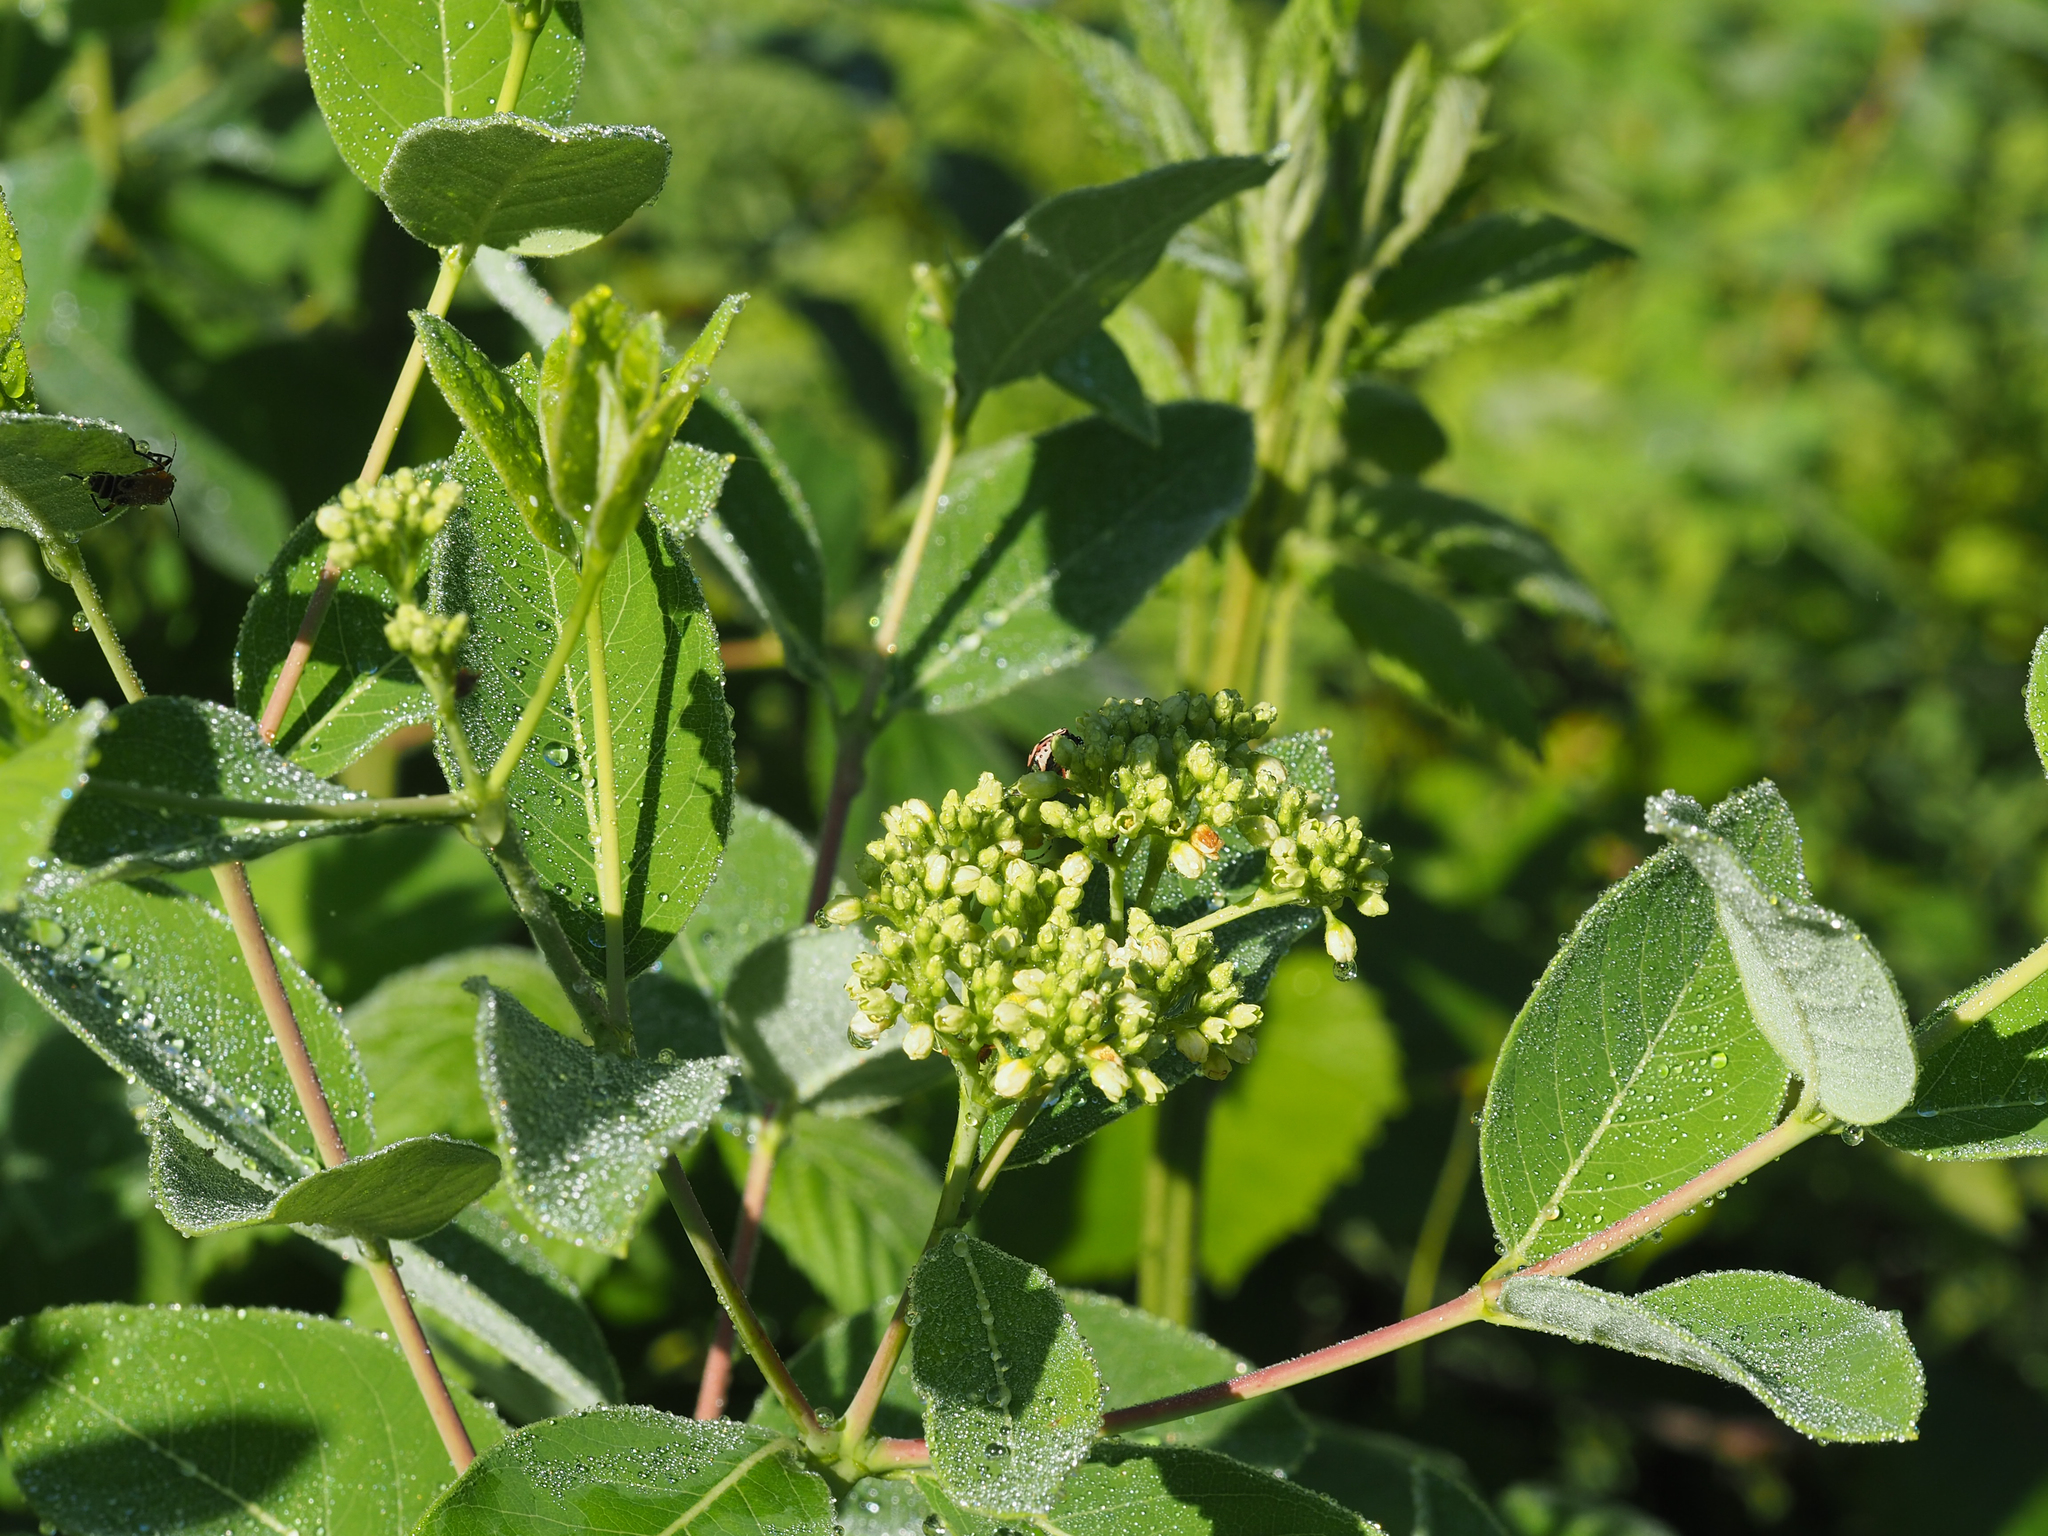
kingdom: Plantae
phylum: Tracheophyta
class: Magnoliopsida
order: Gentianales
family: Apocynaceae
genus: Apocynum
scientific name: Apocynum cannabinum
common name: Hemp dogbane
